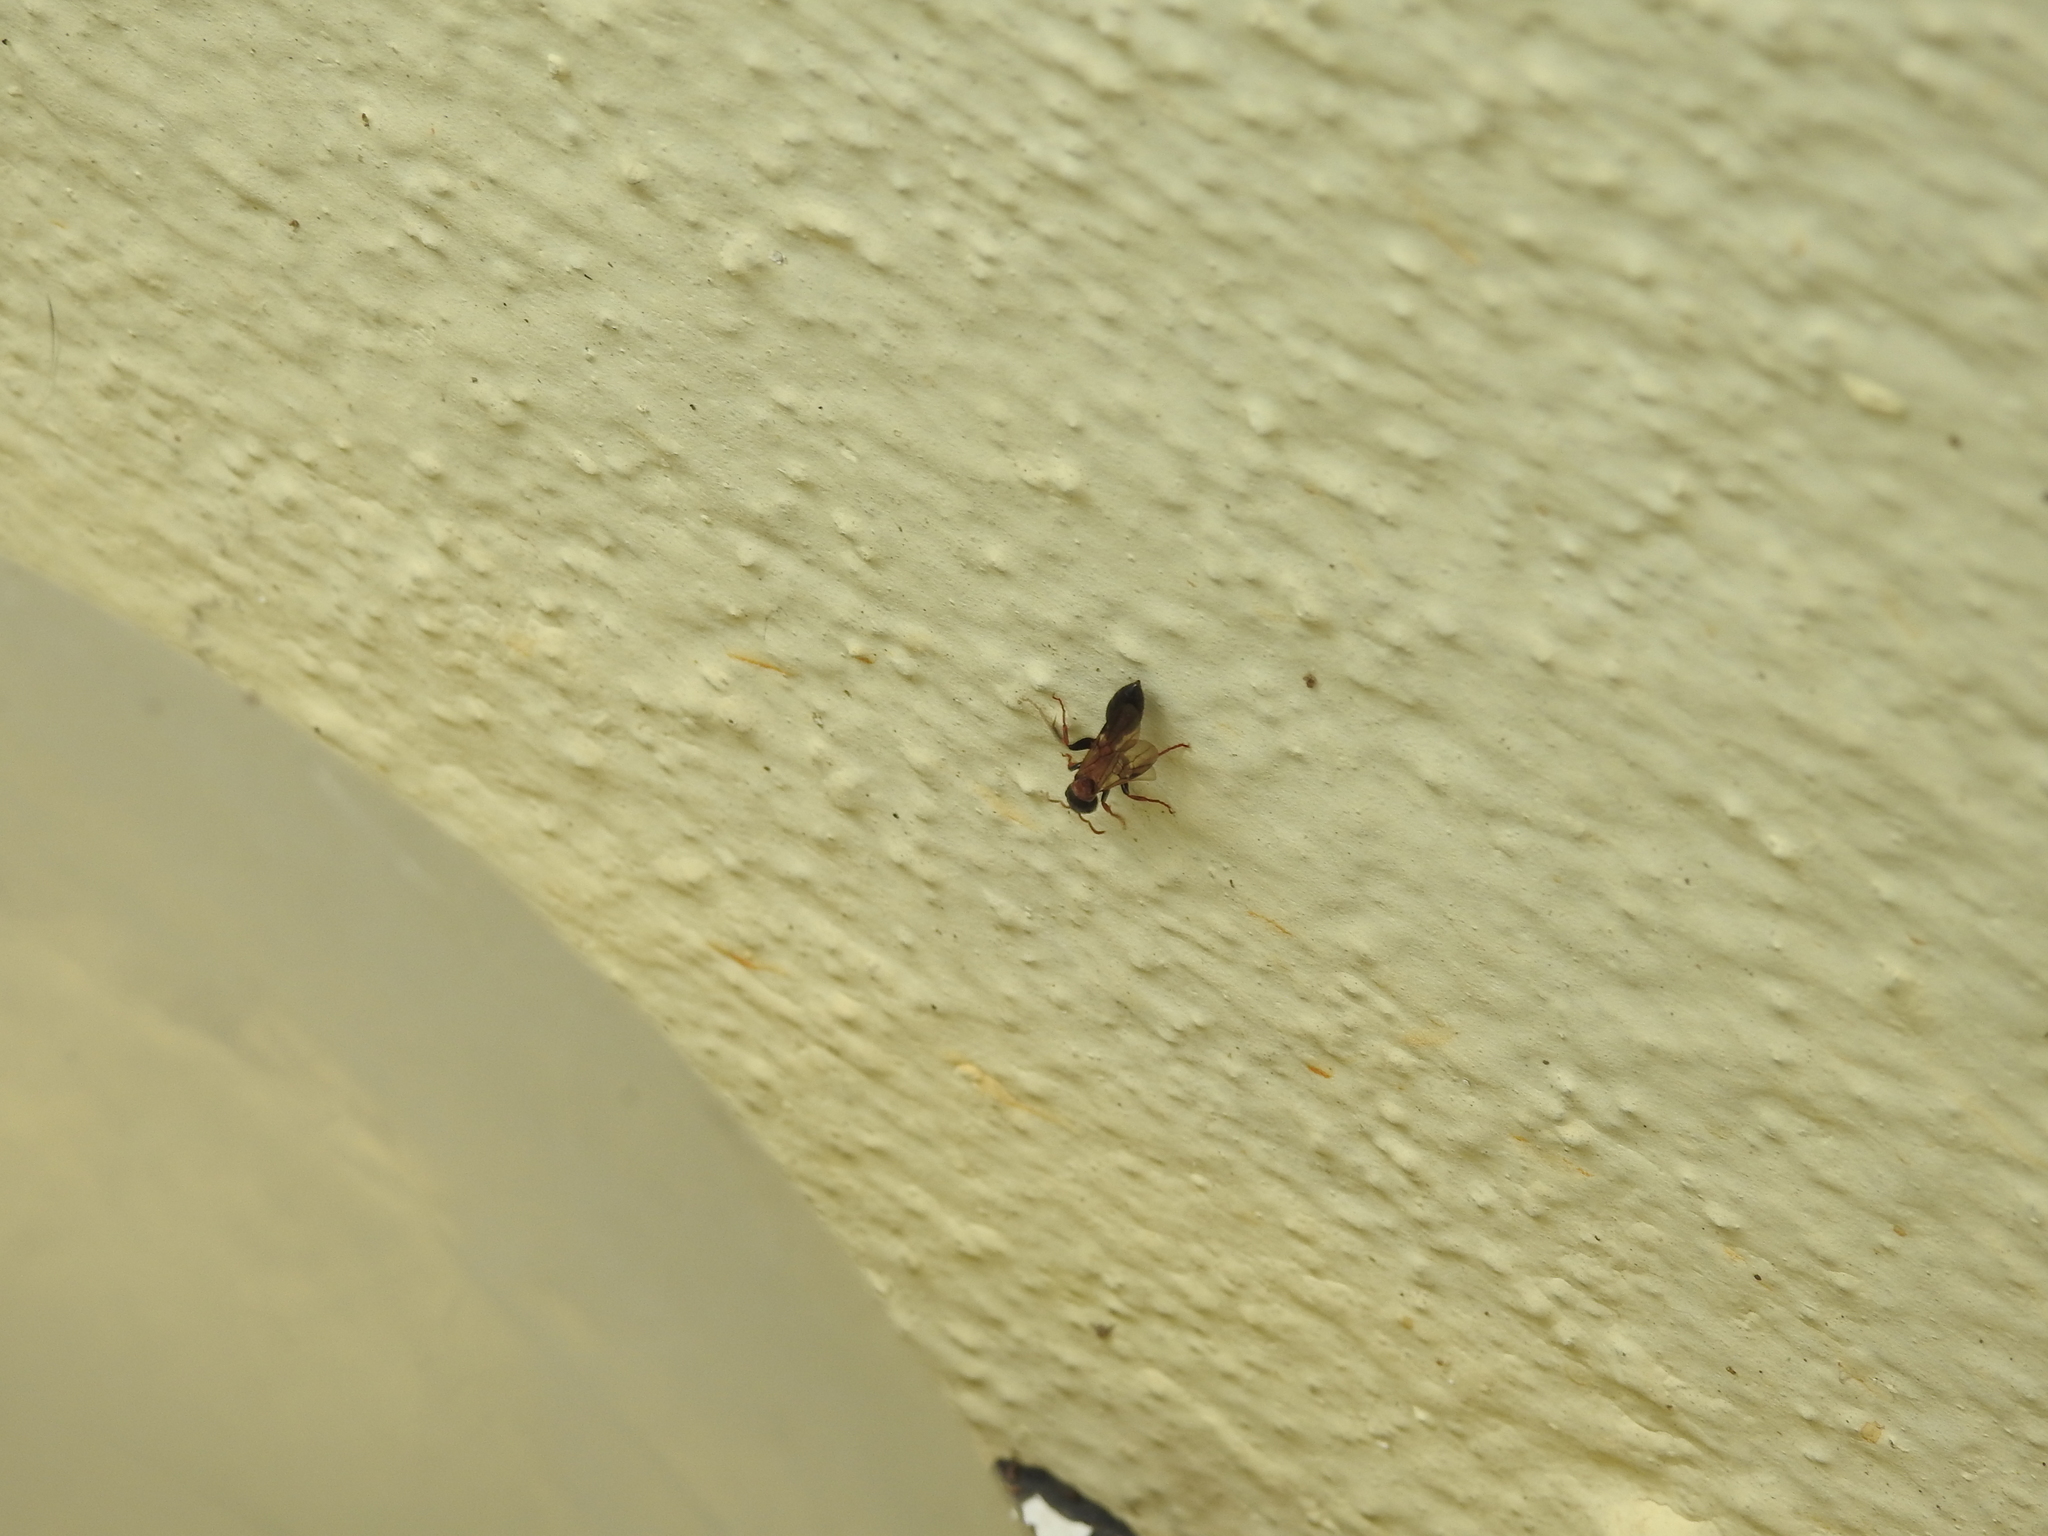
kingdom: Animalia
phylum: Arthropoda
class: Insecta
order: Hymenoptera
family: Formicidae
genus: Tetraponera
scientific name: Tetraponera rufonigra
